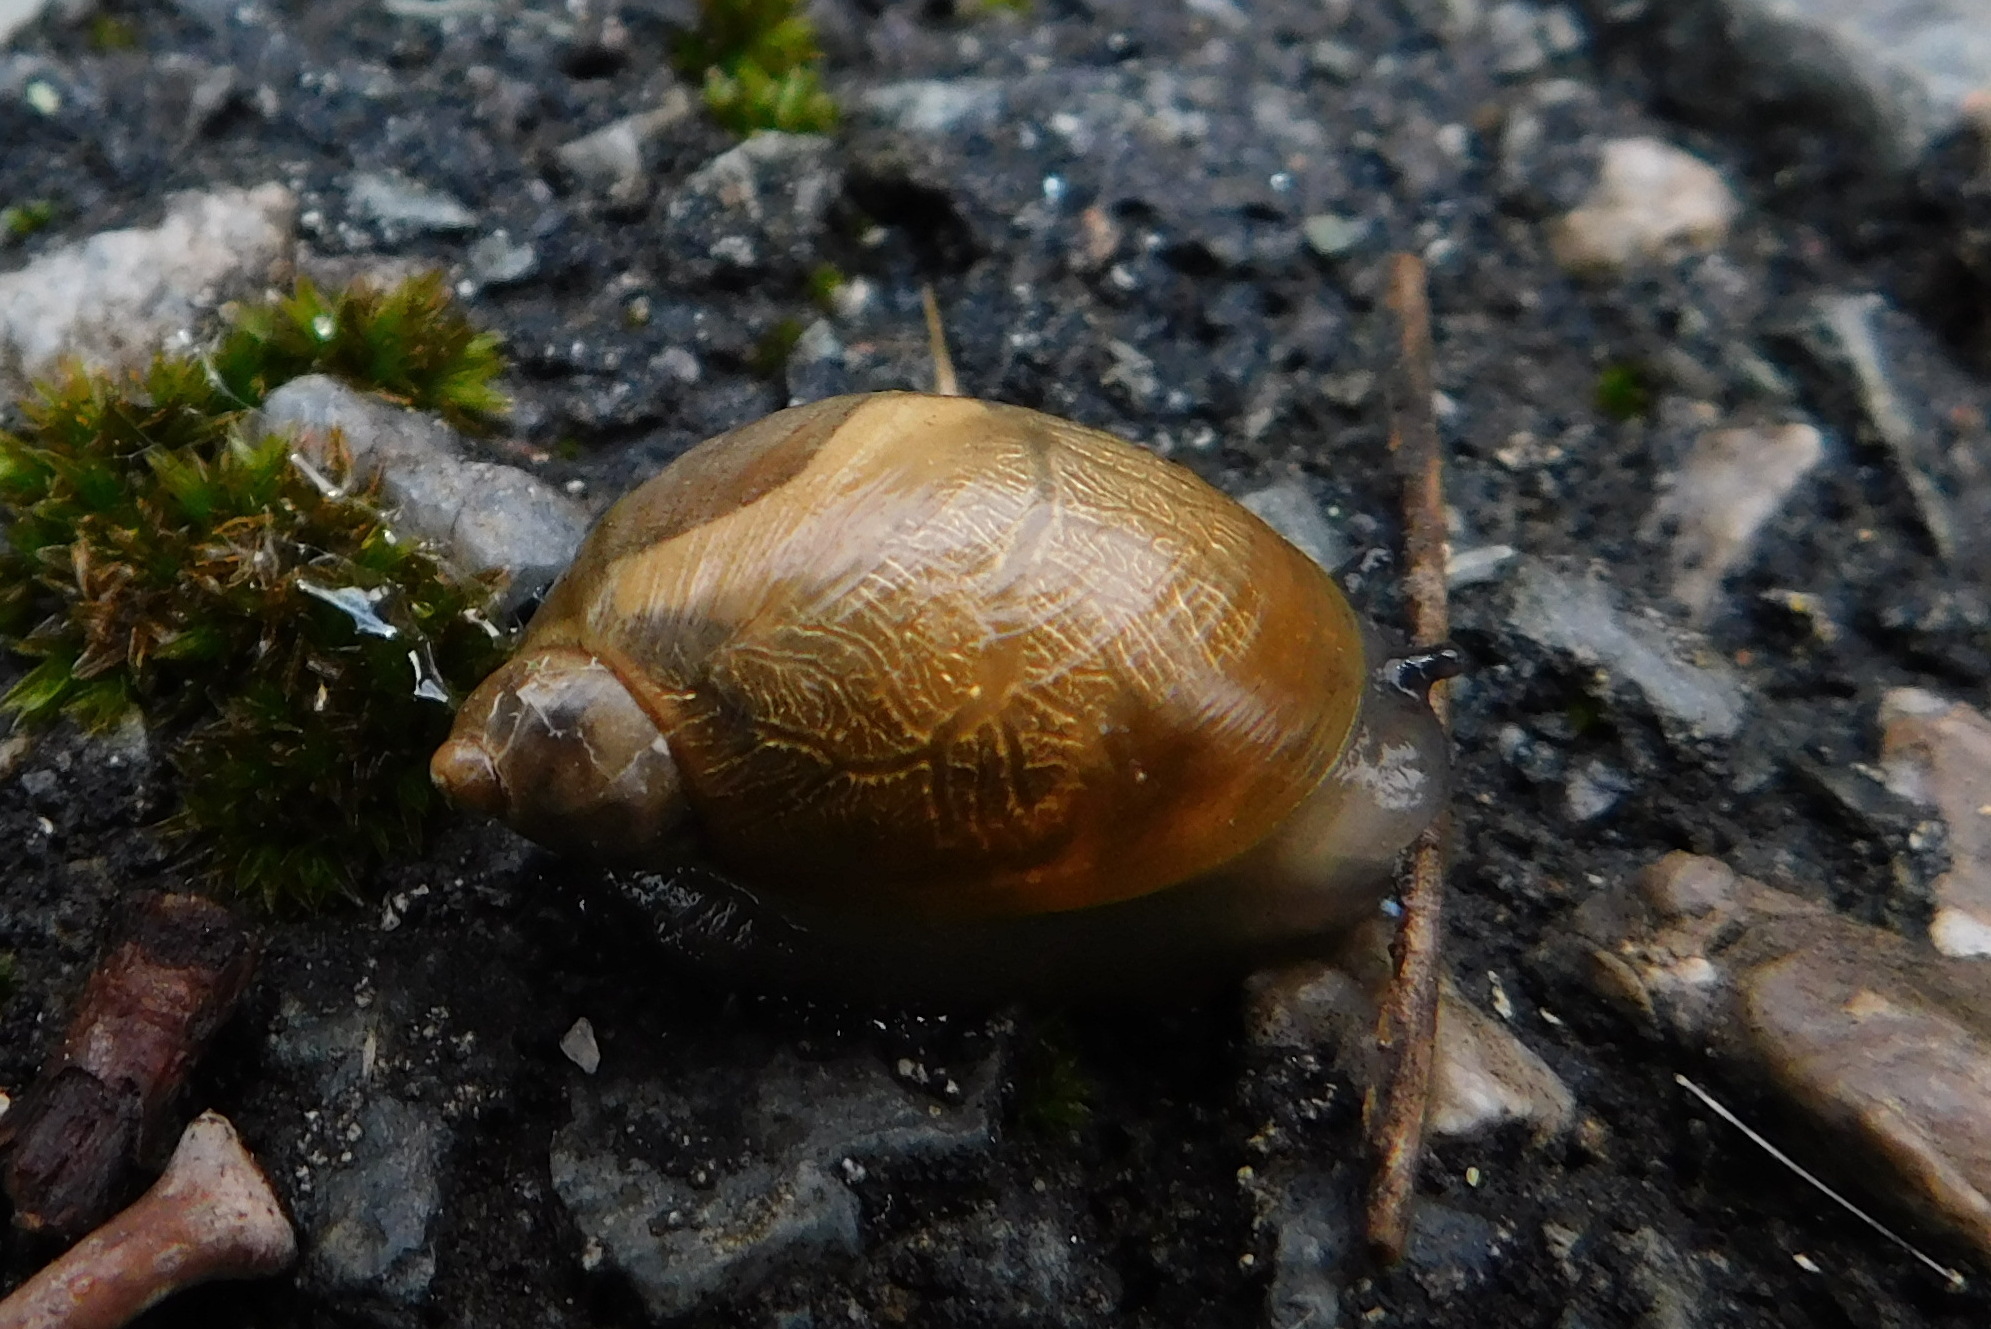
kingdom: Animalia
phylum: Mollusca
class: Gastropoda
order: Stylommatophora
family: Succineidae
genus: Succinea
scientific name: Succinea putris
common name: European ambersnail
